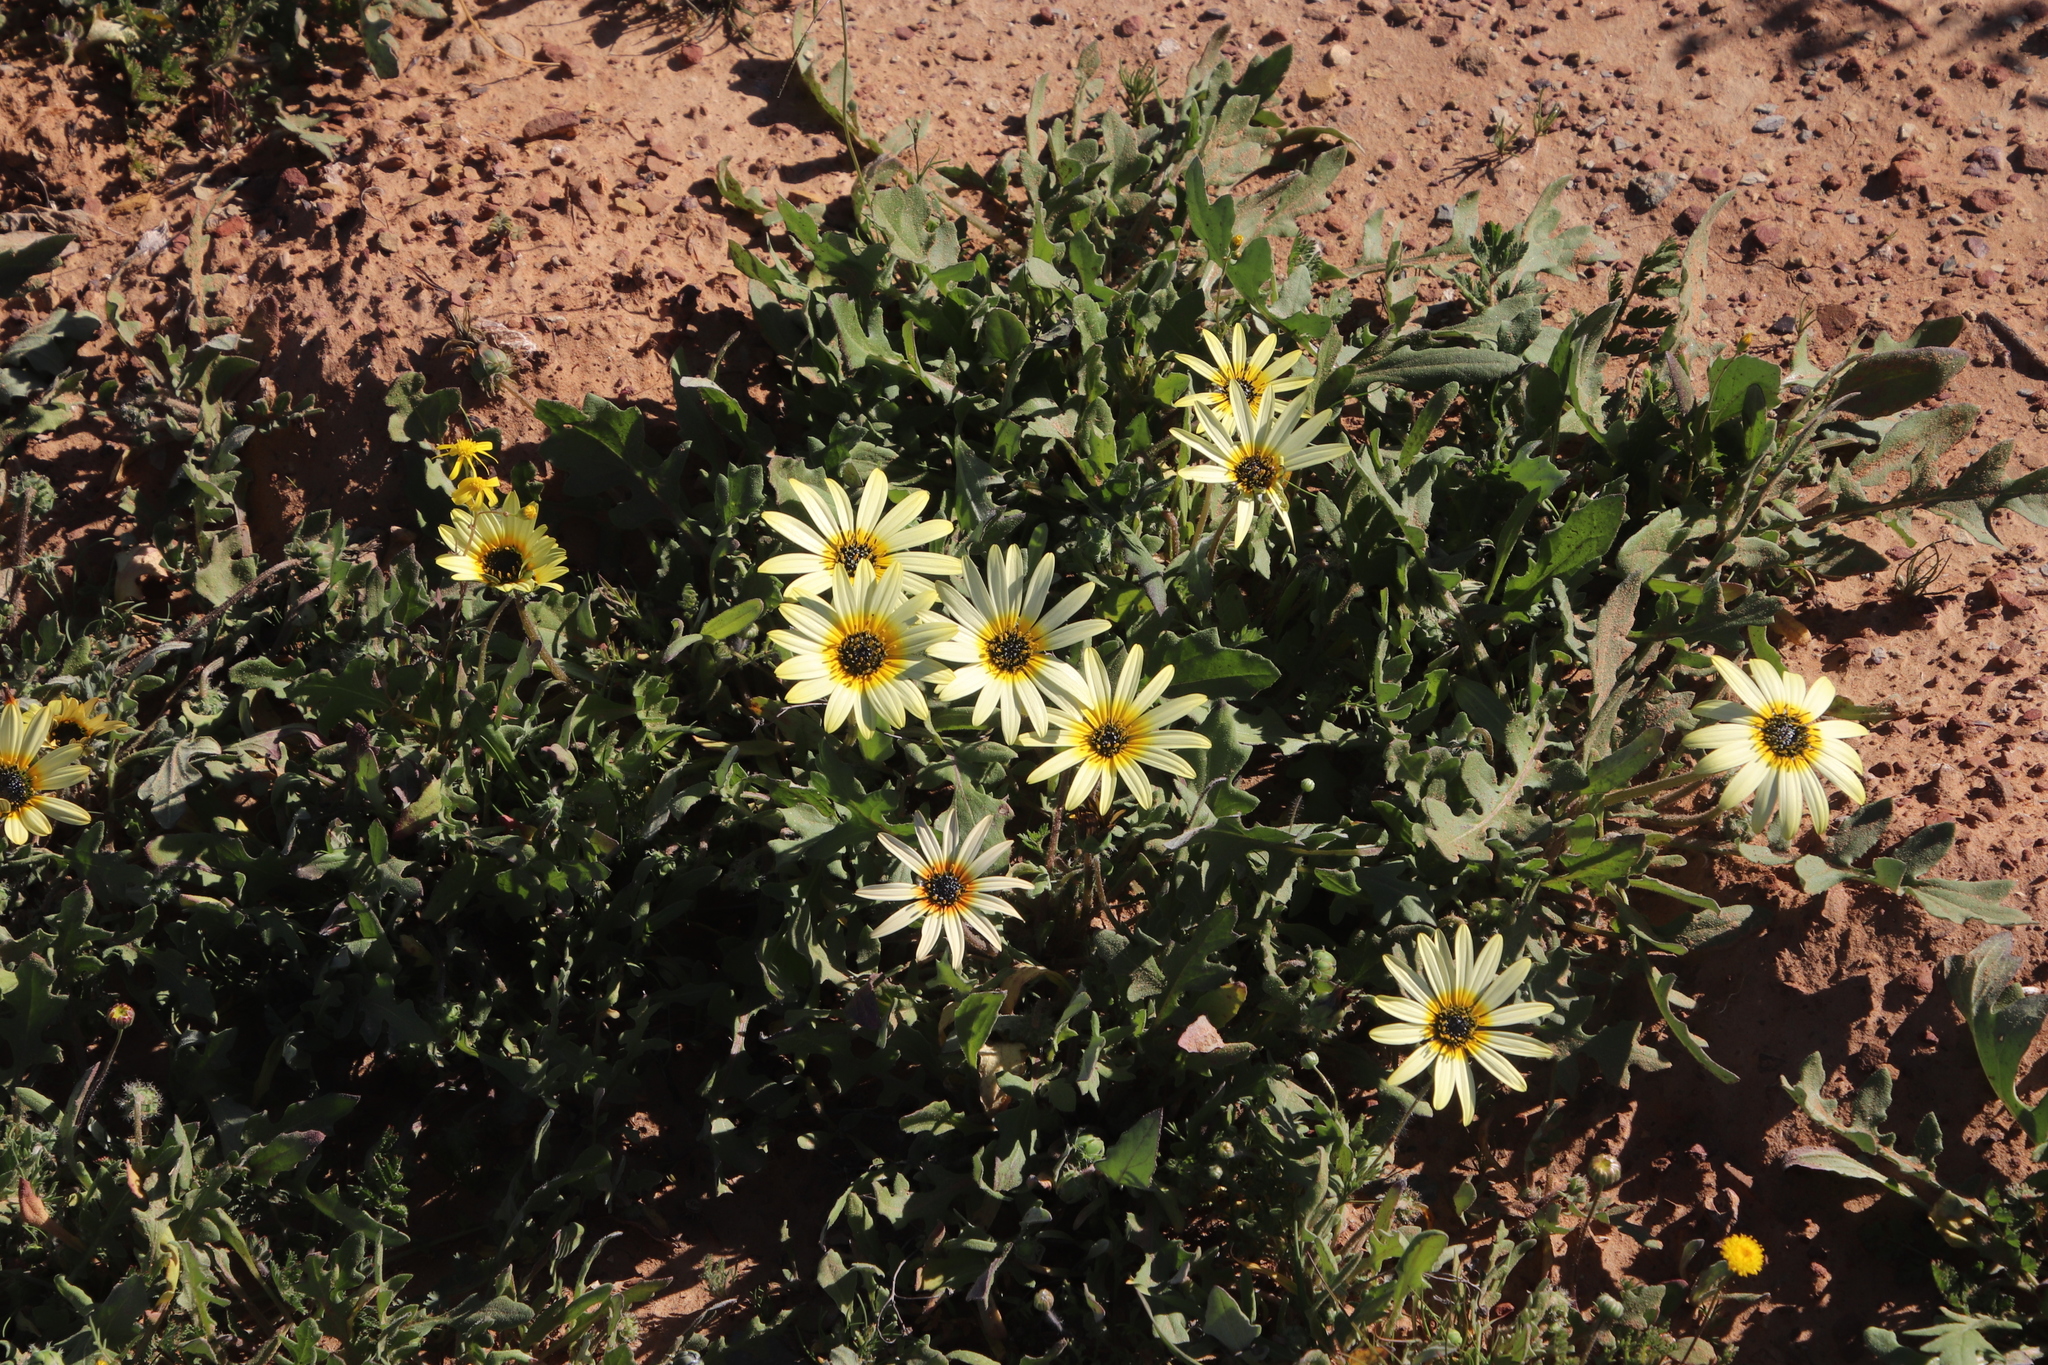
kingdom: Plantae
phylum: Tracheophyta
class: Magnoliopsida
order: Asterales
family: Asteraceae
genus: Arctotheca
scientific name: Arctotheca calendula
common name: Capeweed
